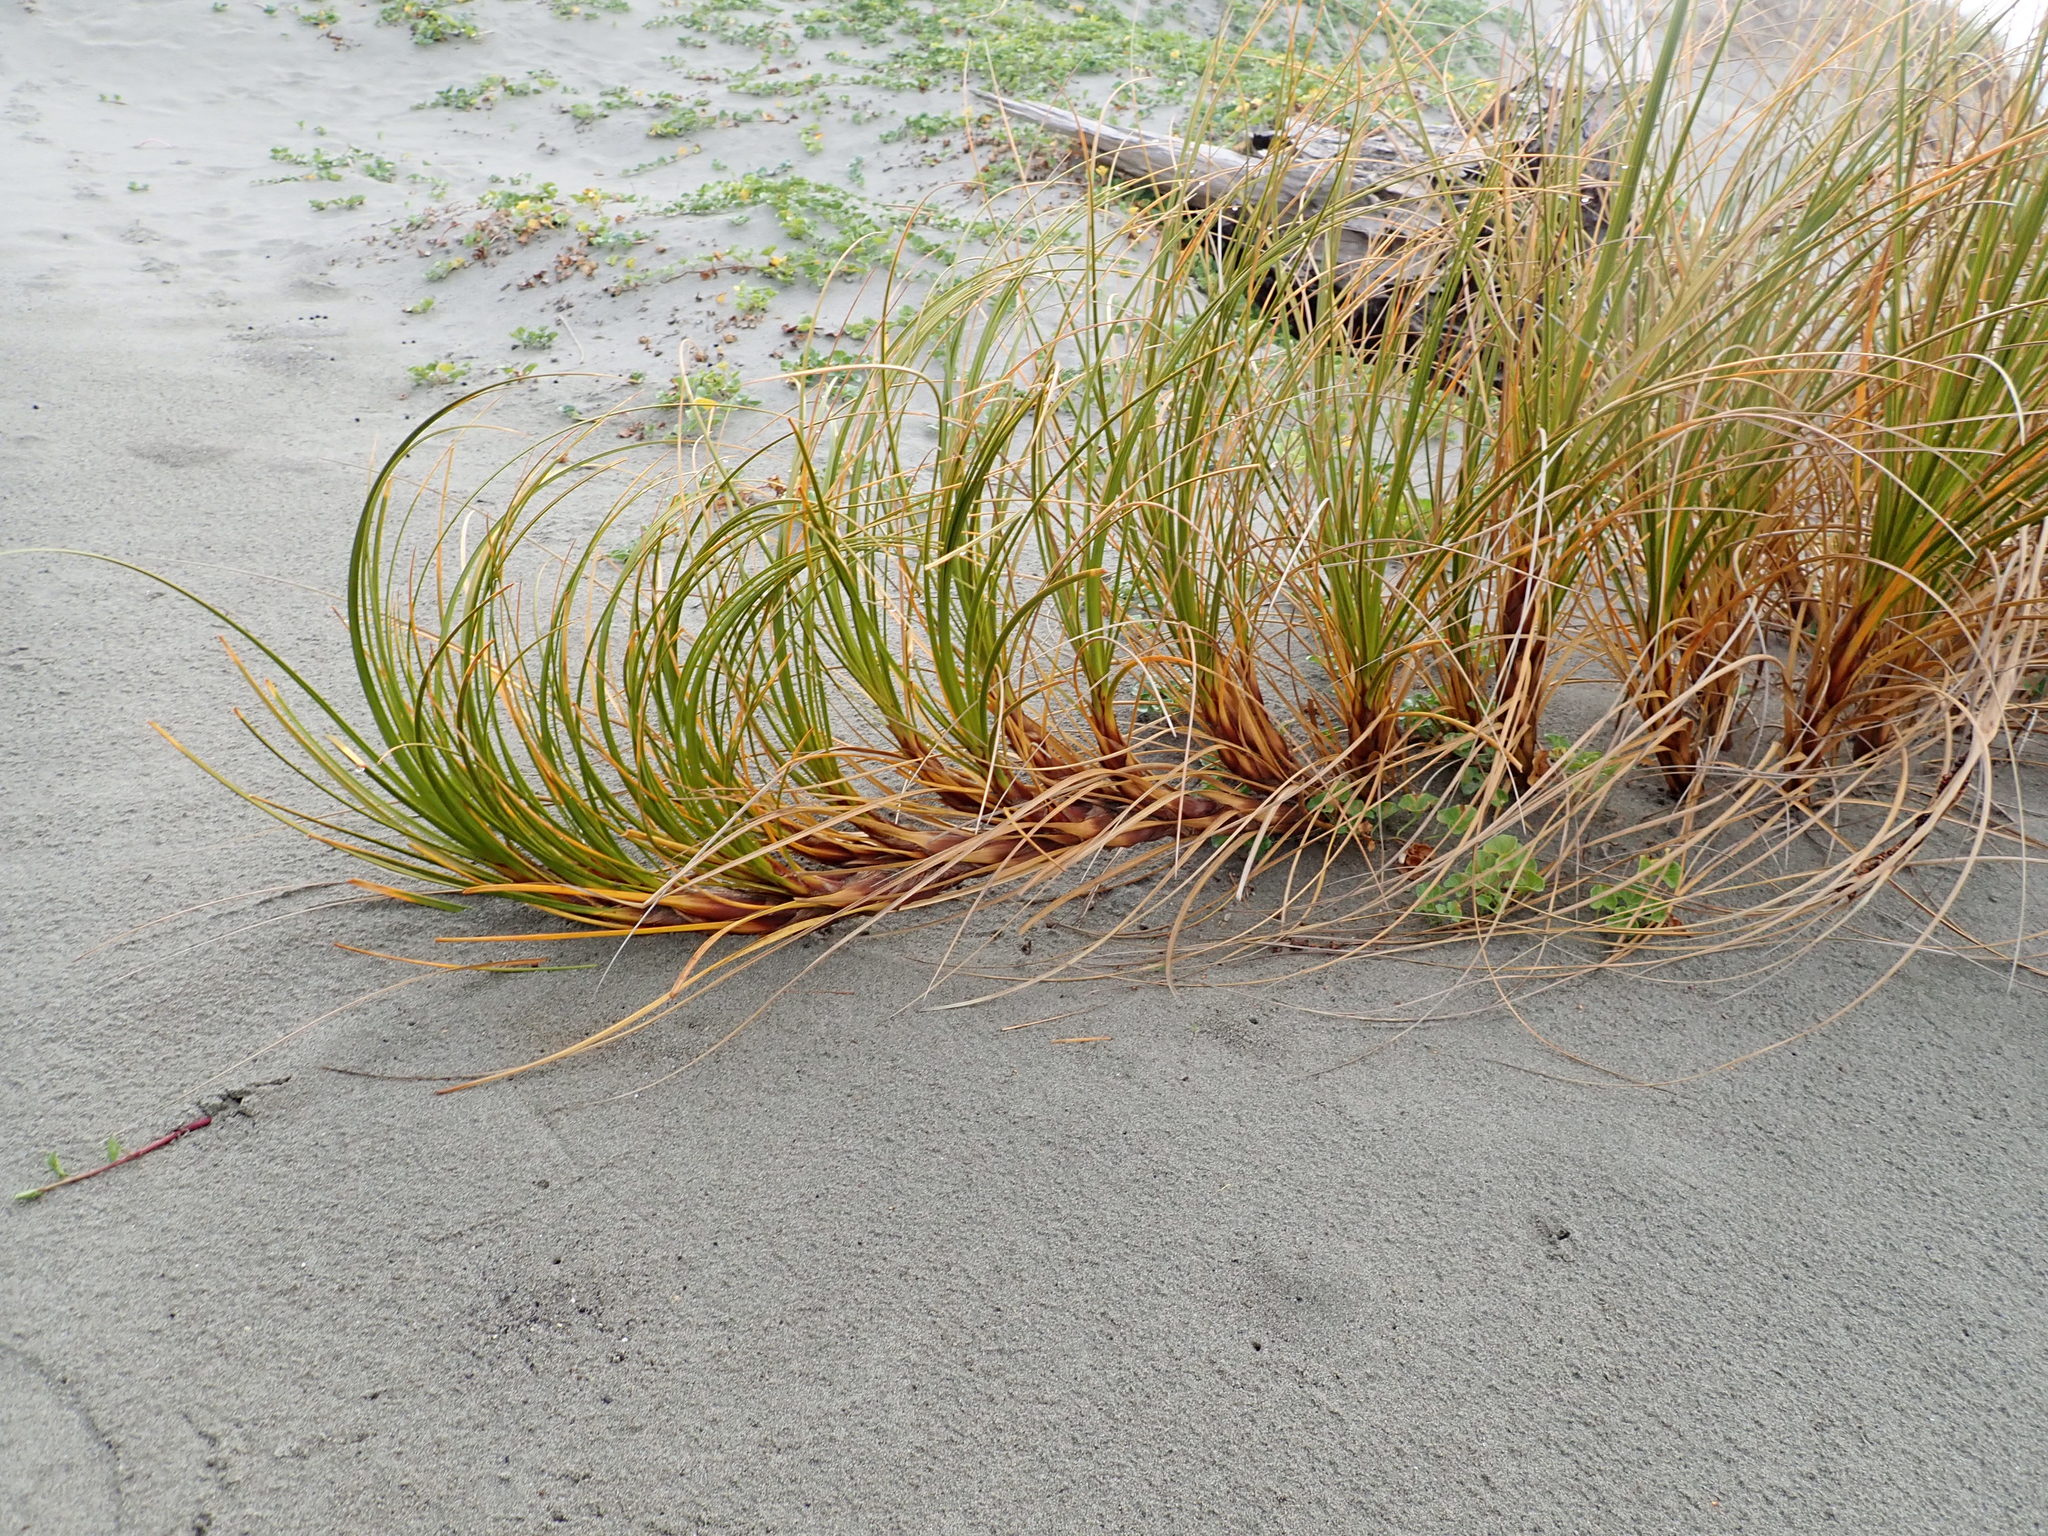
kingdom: Plantae
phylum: Tracheophyta
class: Liliopsida
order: Poales
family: Cyperaceae
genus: Ficinia
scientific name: Ficinia spiralis
